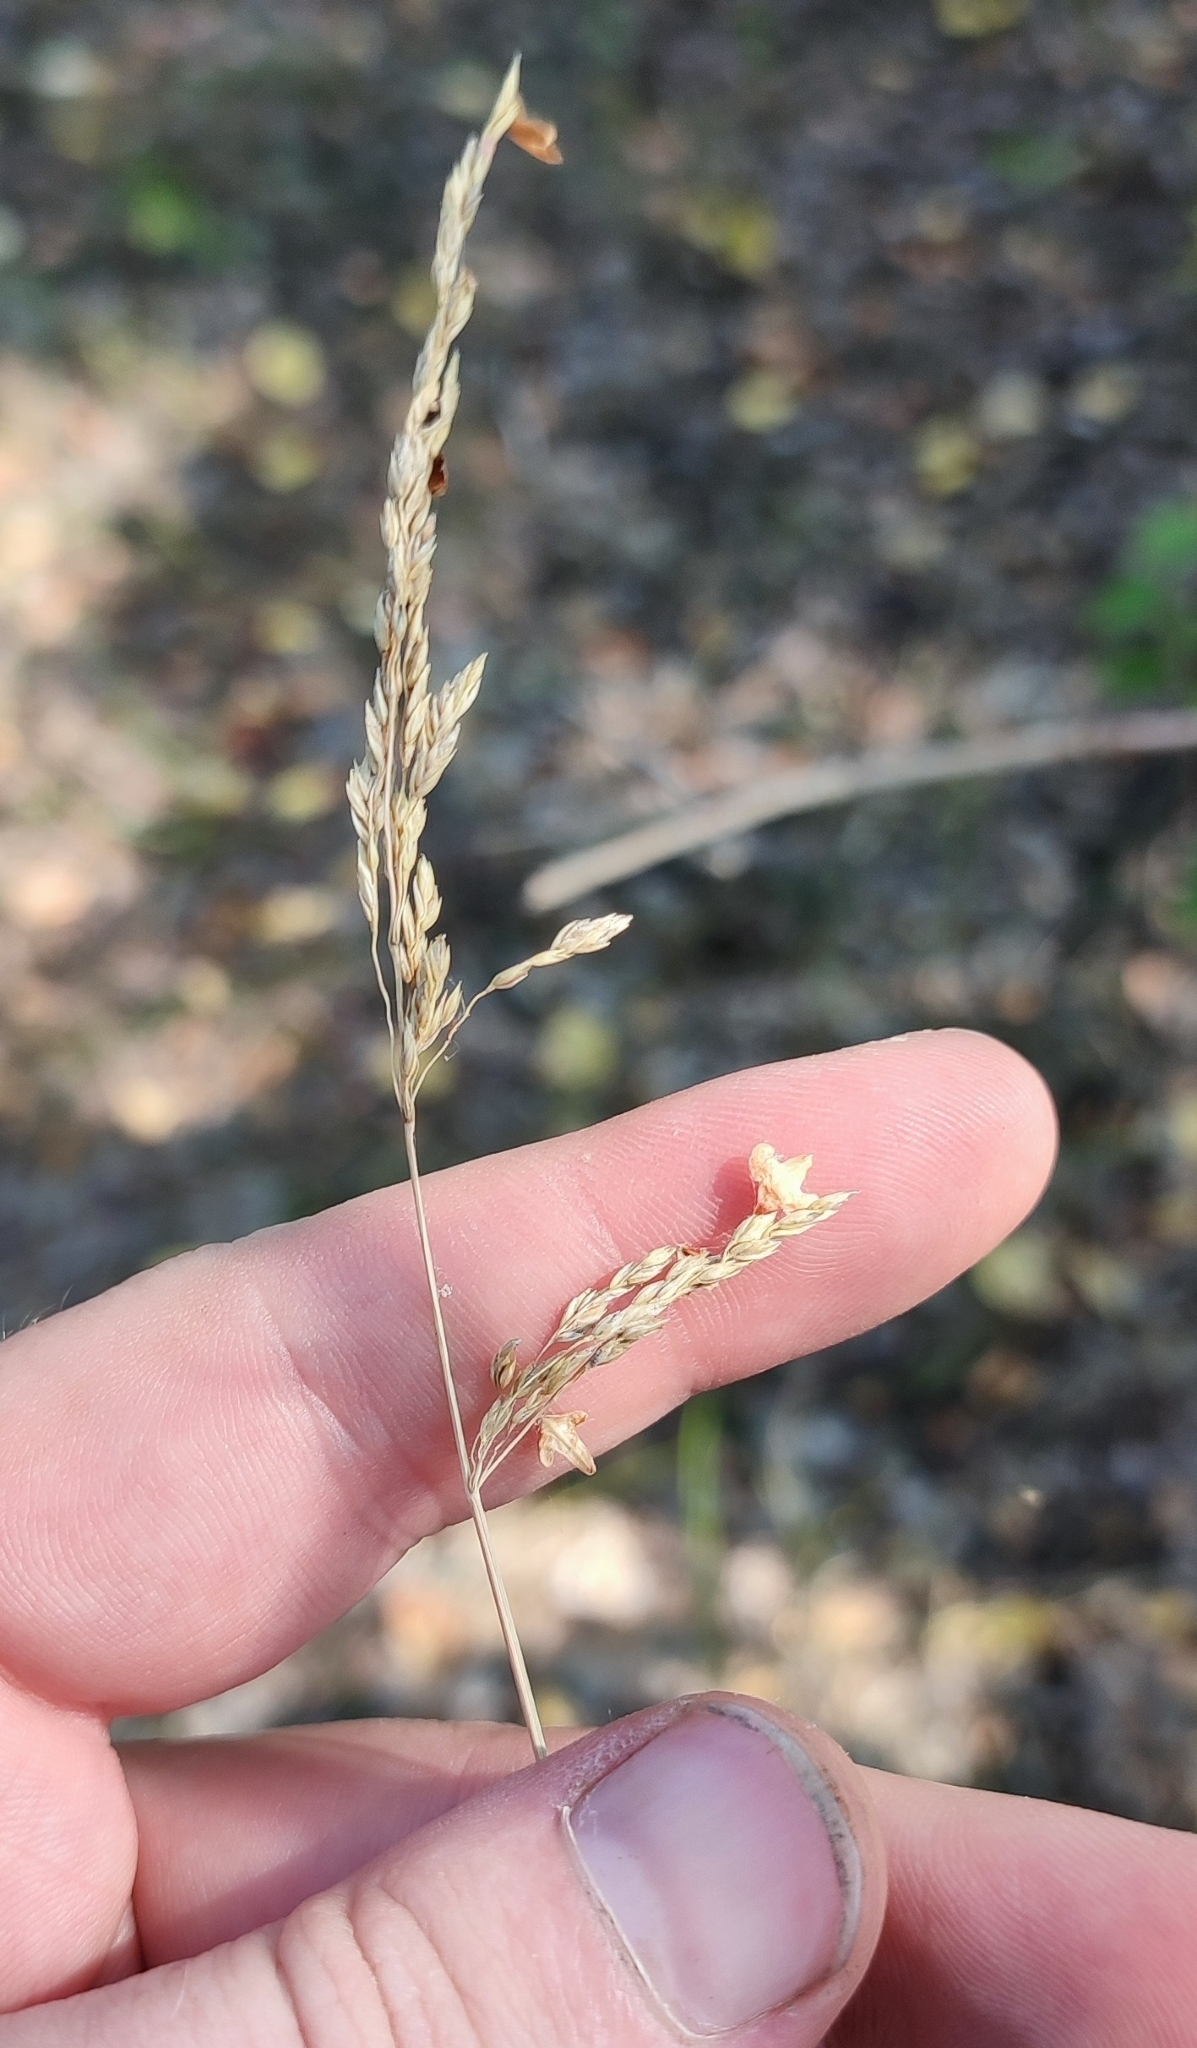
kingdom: Plantae
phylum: Tracheophyta
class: Liliopsida
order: Poales
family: Poaceae
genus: Poa
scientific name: Poa angustifolia
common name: Narrow-leaved meadow-grass
